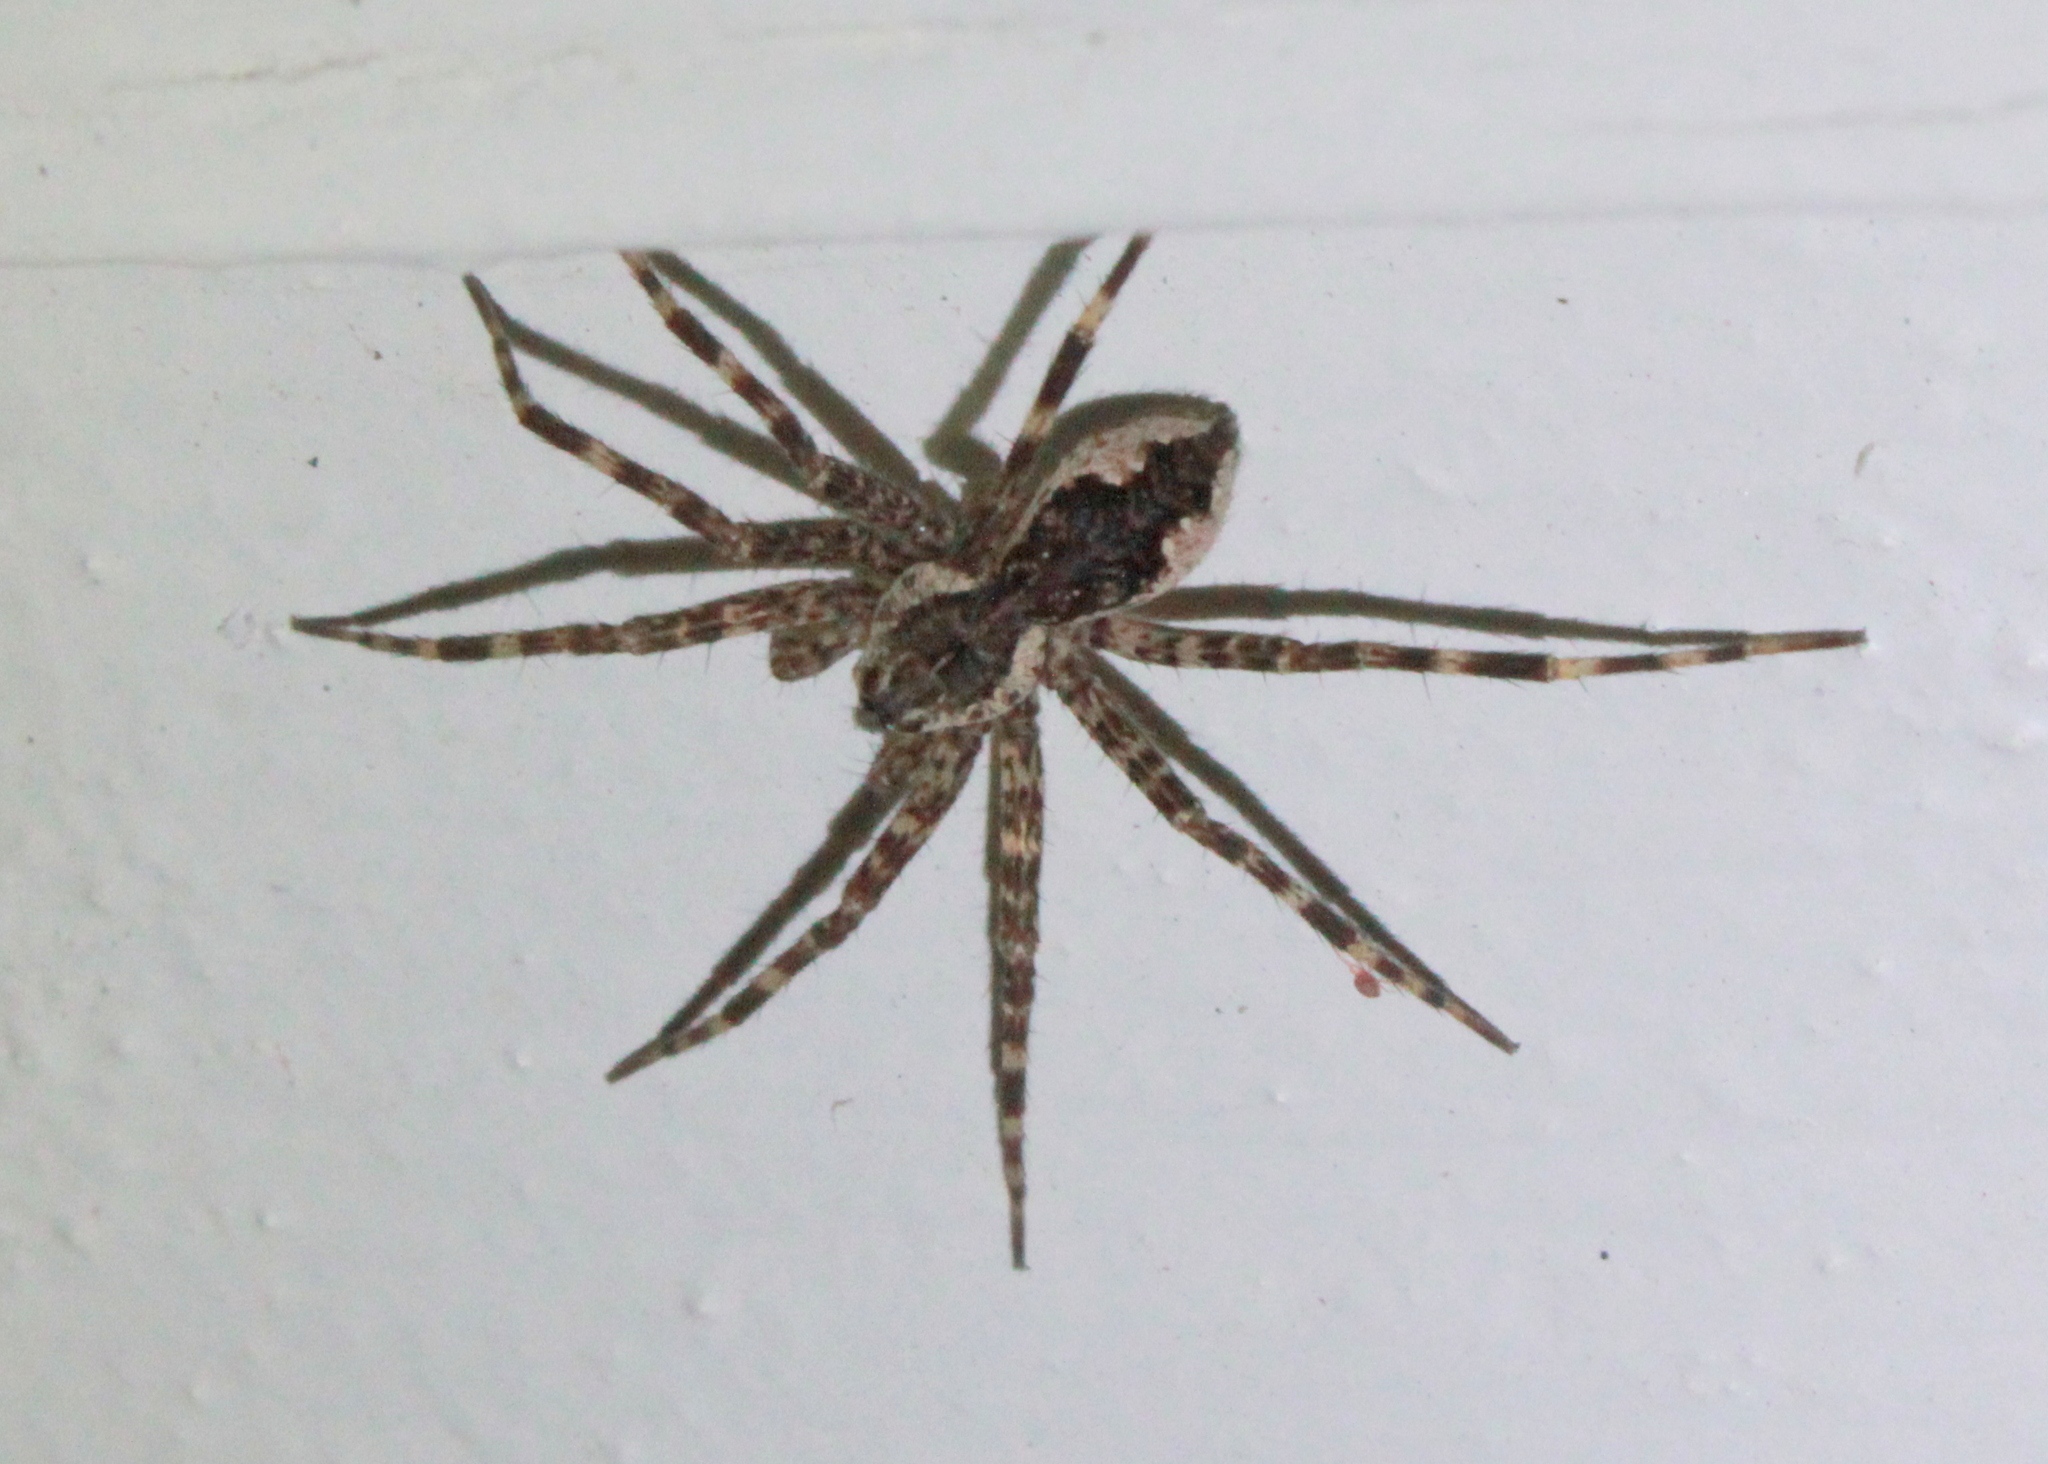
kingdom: Animalia
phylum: Arthropoda
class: Arachnida
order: Araneae
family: Pisauridae
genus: Dolomedes
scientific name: Dolomedes tenebrosus
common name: Dark fishing spider
